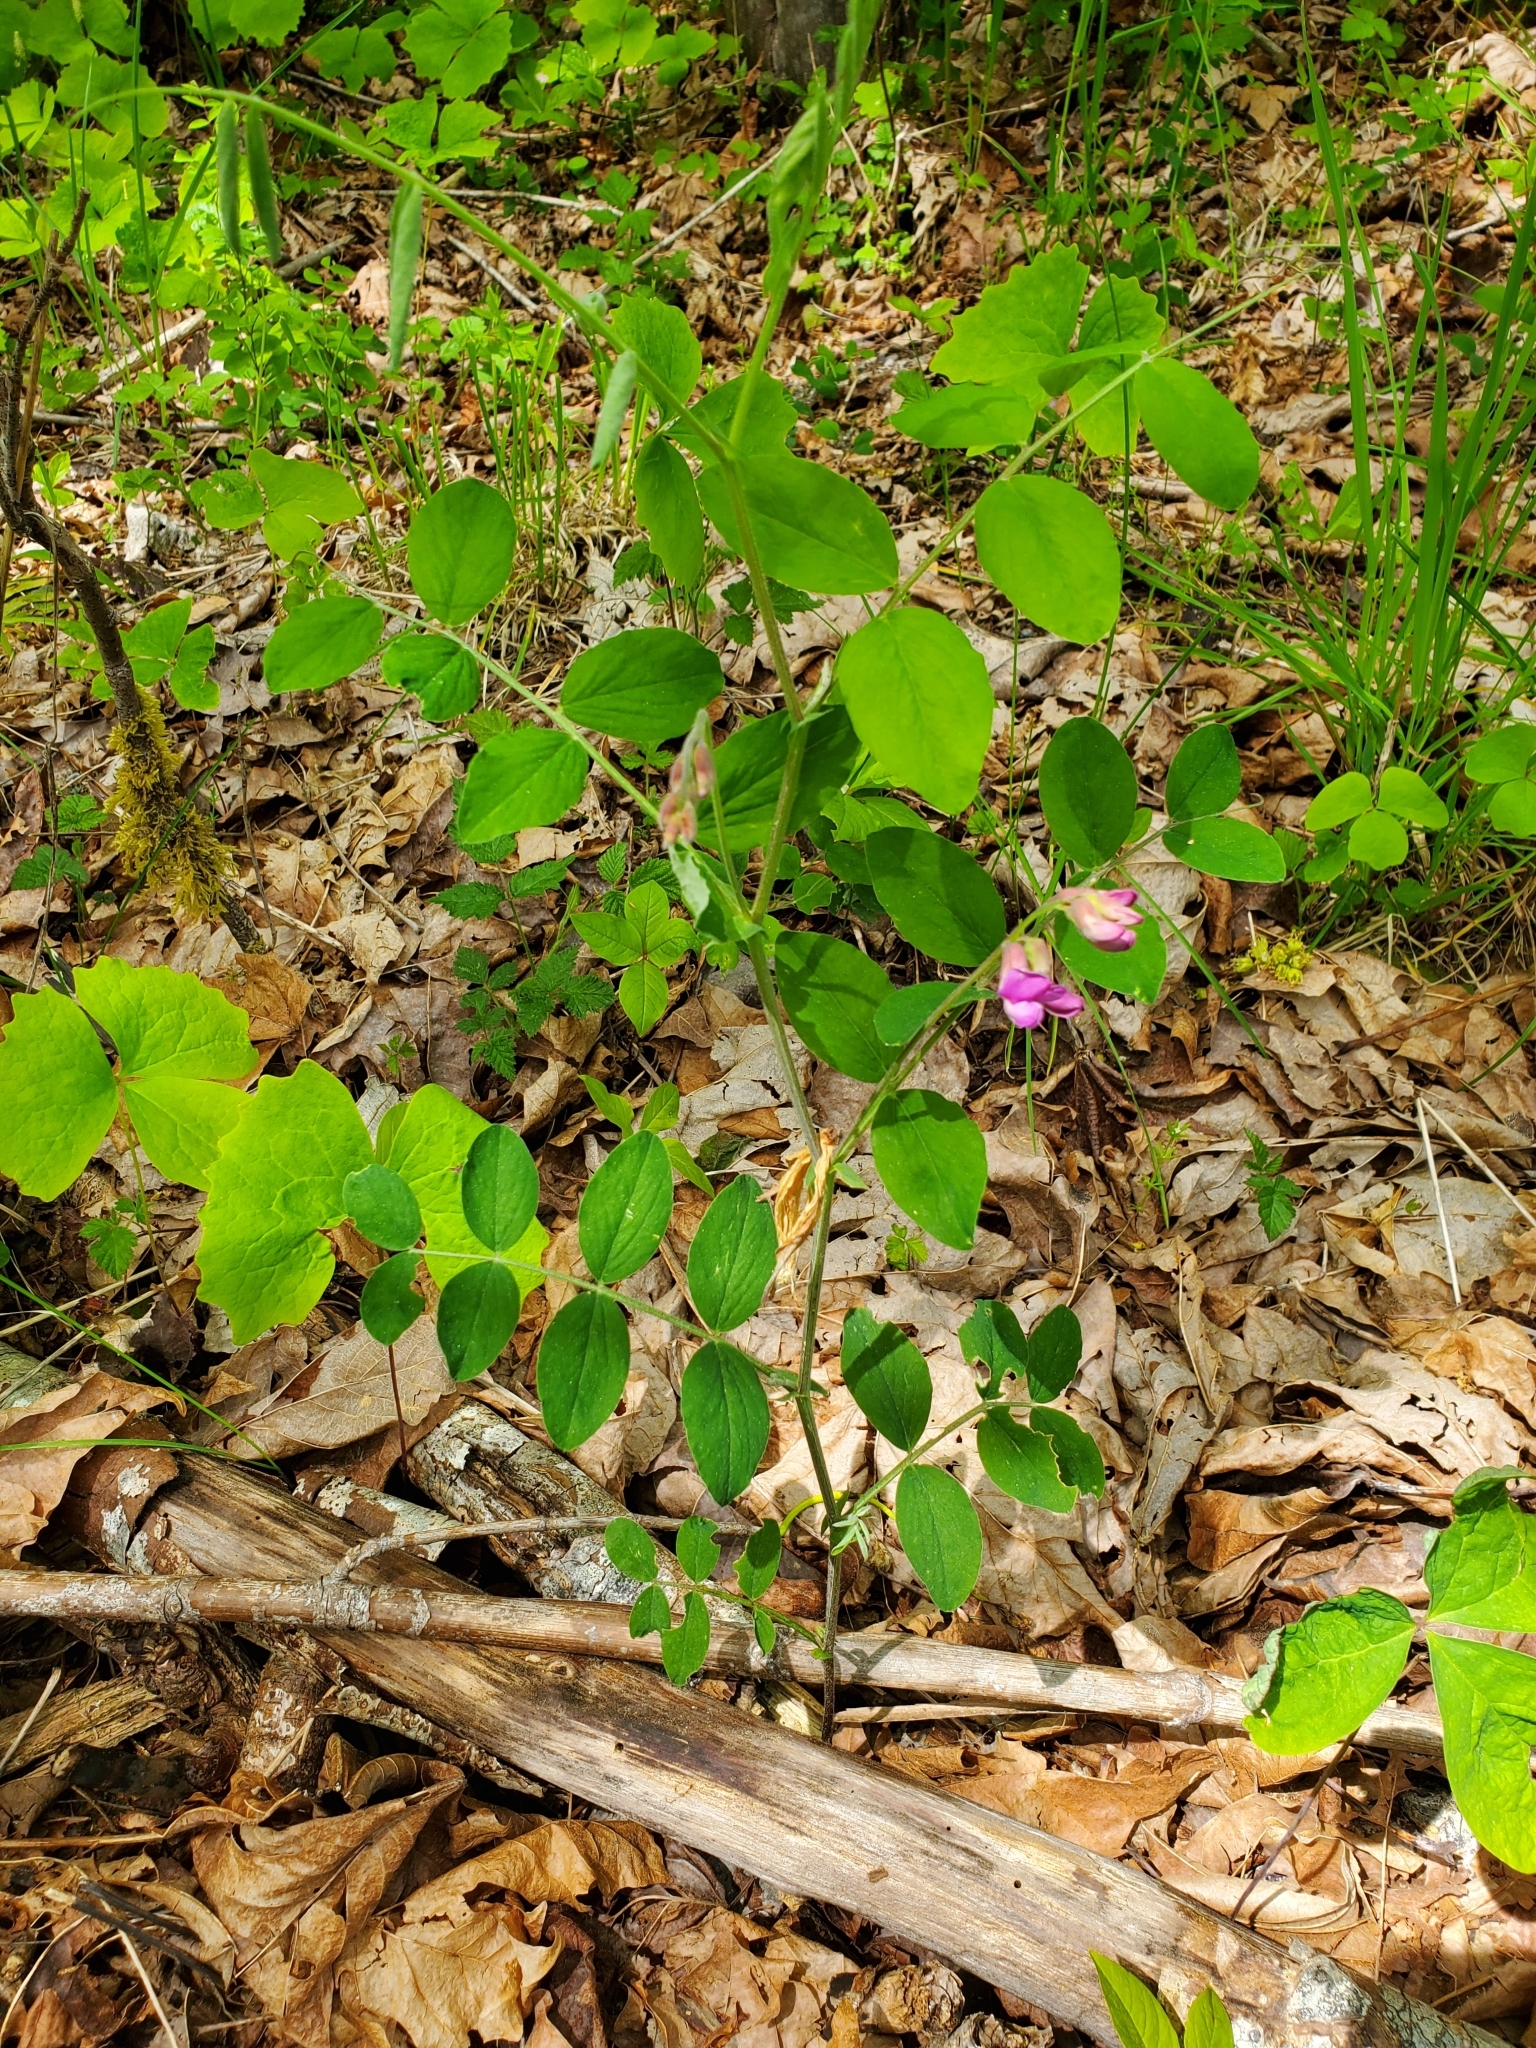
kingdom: Plantae
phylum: Tracheophyta
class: Magnoliopsida
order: Fabales
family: Fabaceae
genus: Lathyrus
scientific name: Lathyrus nevadensis
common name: Sierra nevada peavine
